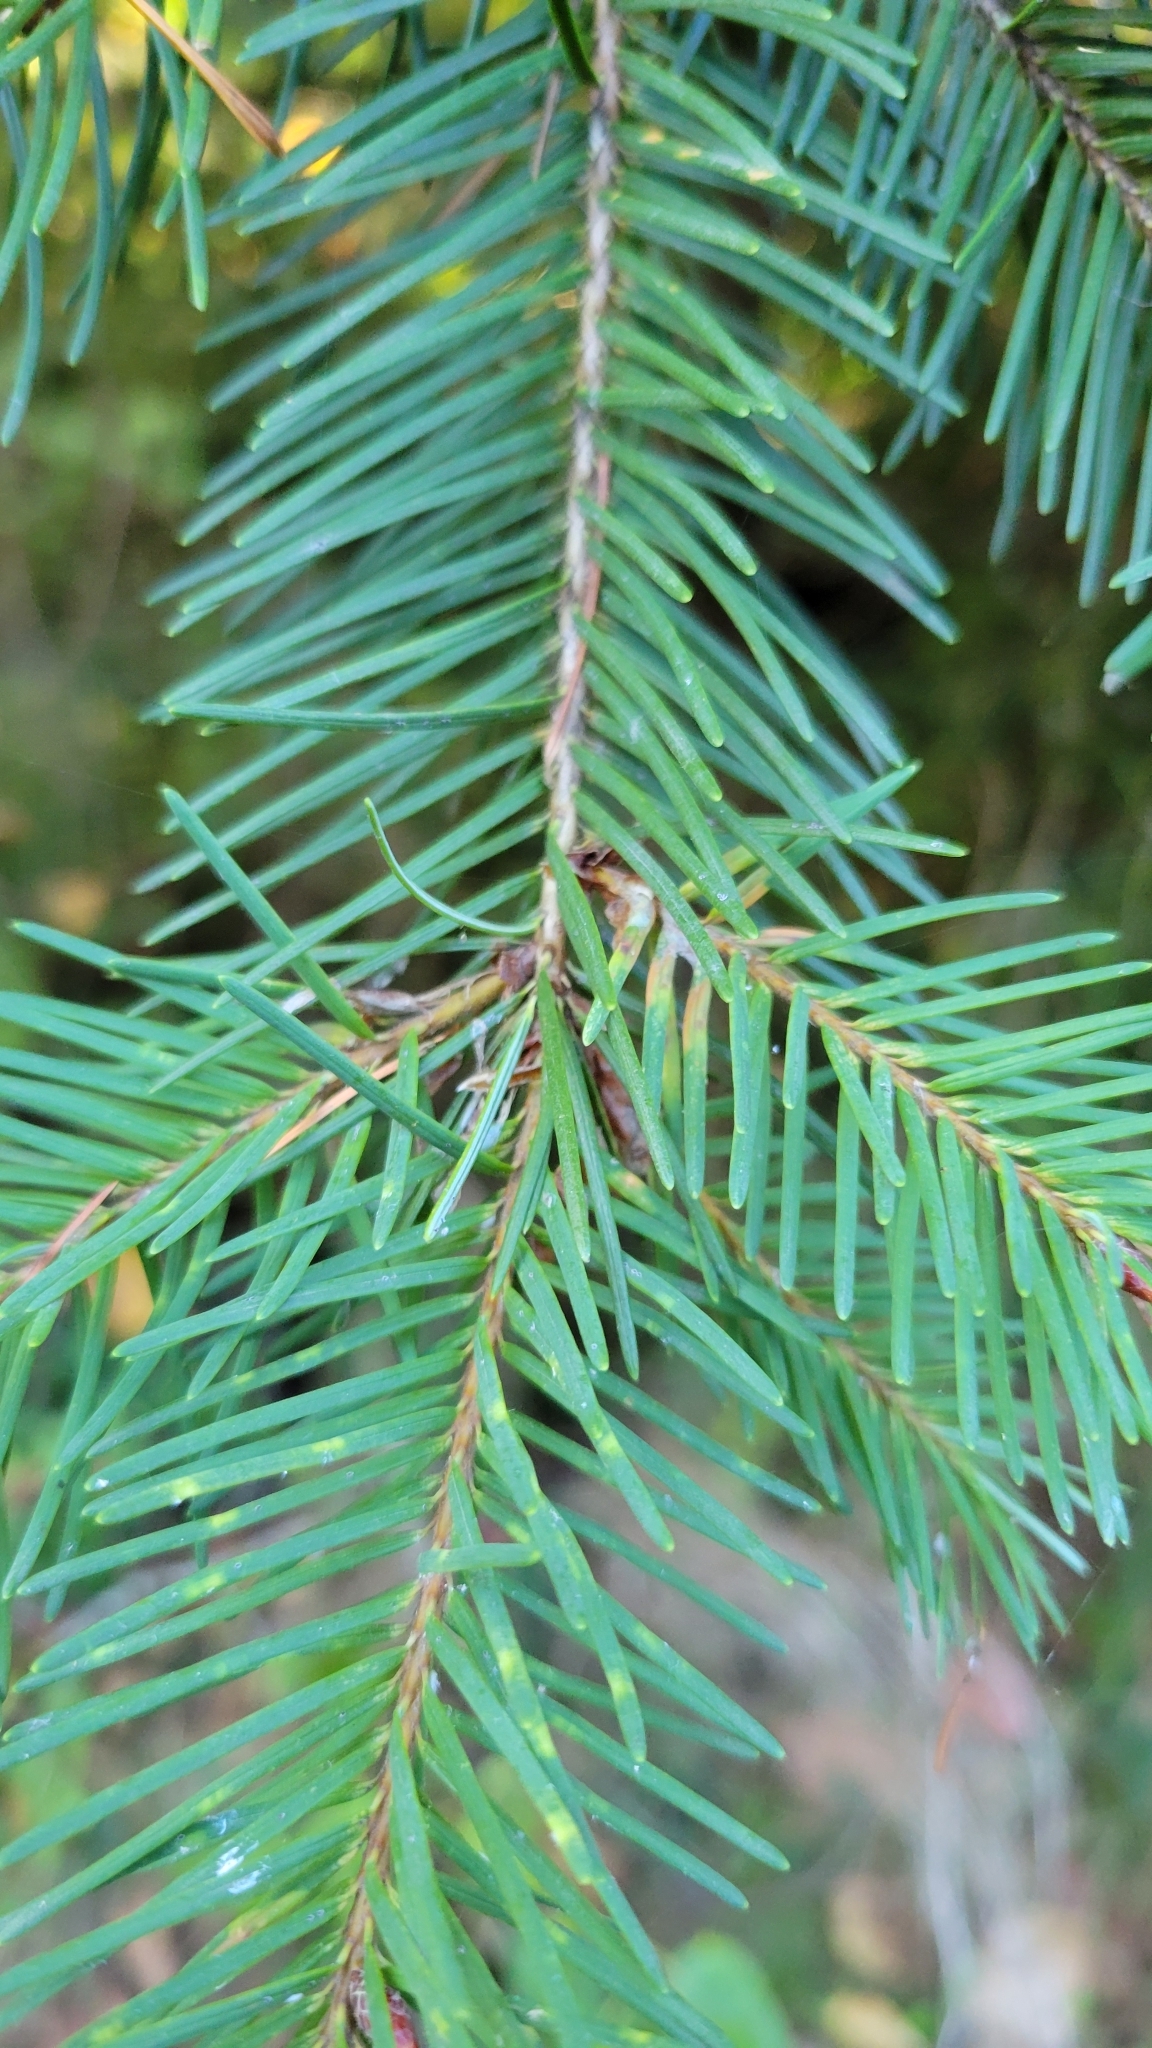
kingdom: Plantae
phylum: Tracheophyta
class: Pinopsida
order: Pinales
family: Pinaceae
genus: Pseudotsuga
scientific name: Pseudotsuga menziesii
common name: Douglas fir
